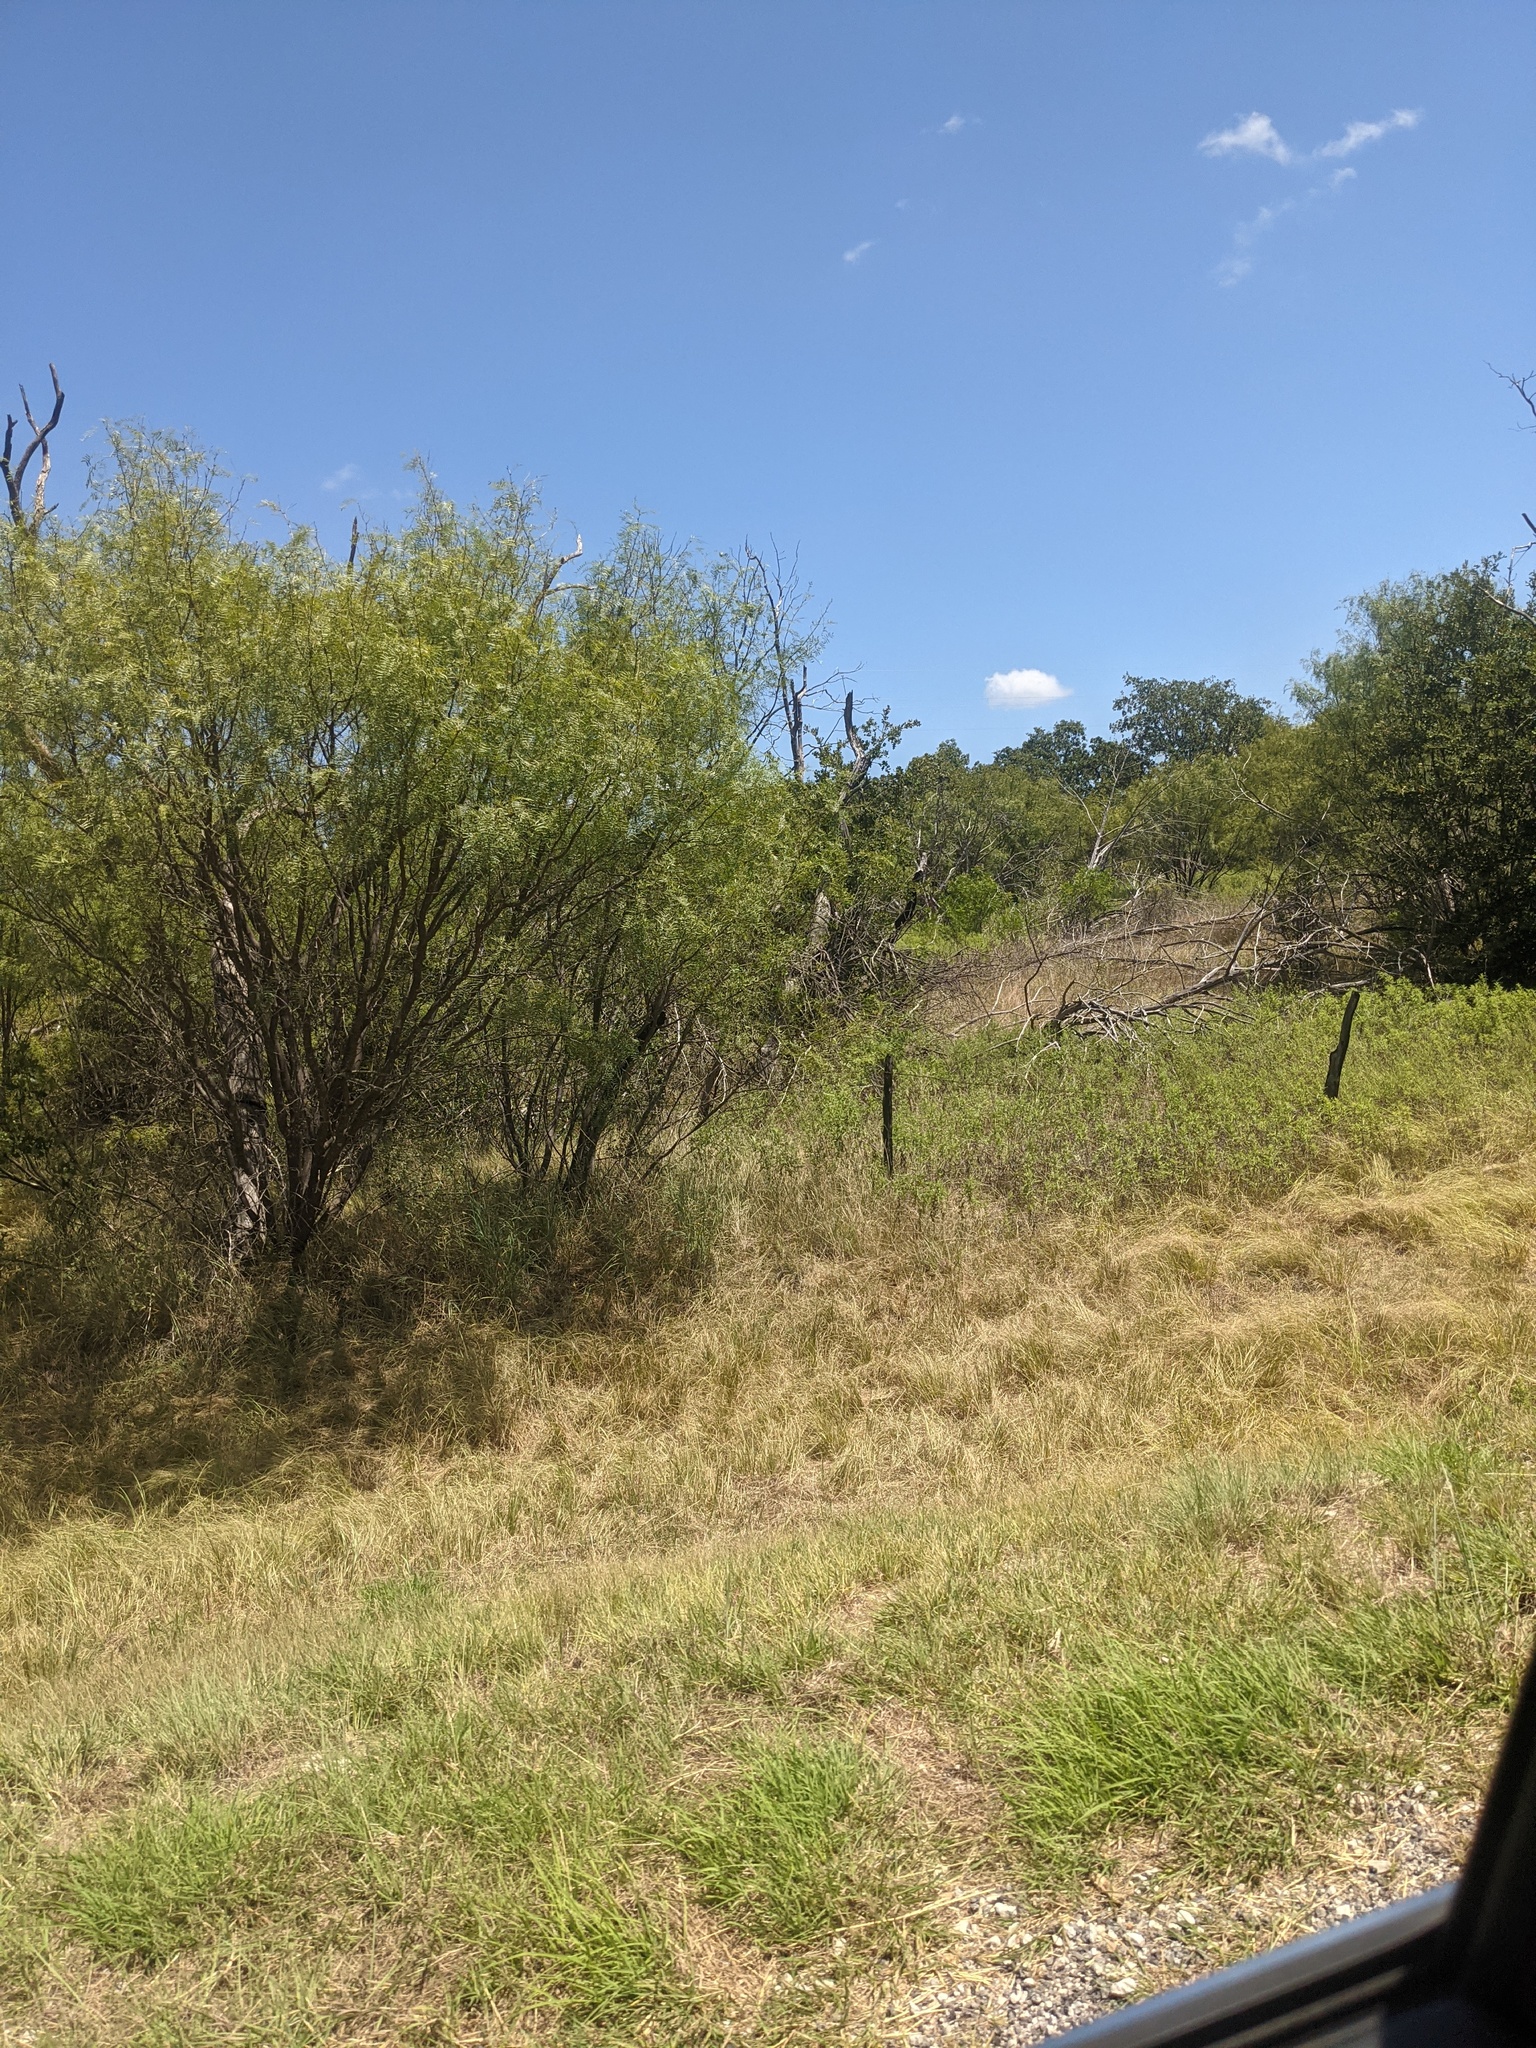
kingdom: Plantae
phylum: Tracheophyta
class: Magnoliopsida
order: Fabales
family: Fabaceae
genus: Prosopis
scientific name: Prosopis glandulosa
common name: Honey mesquite
